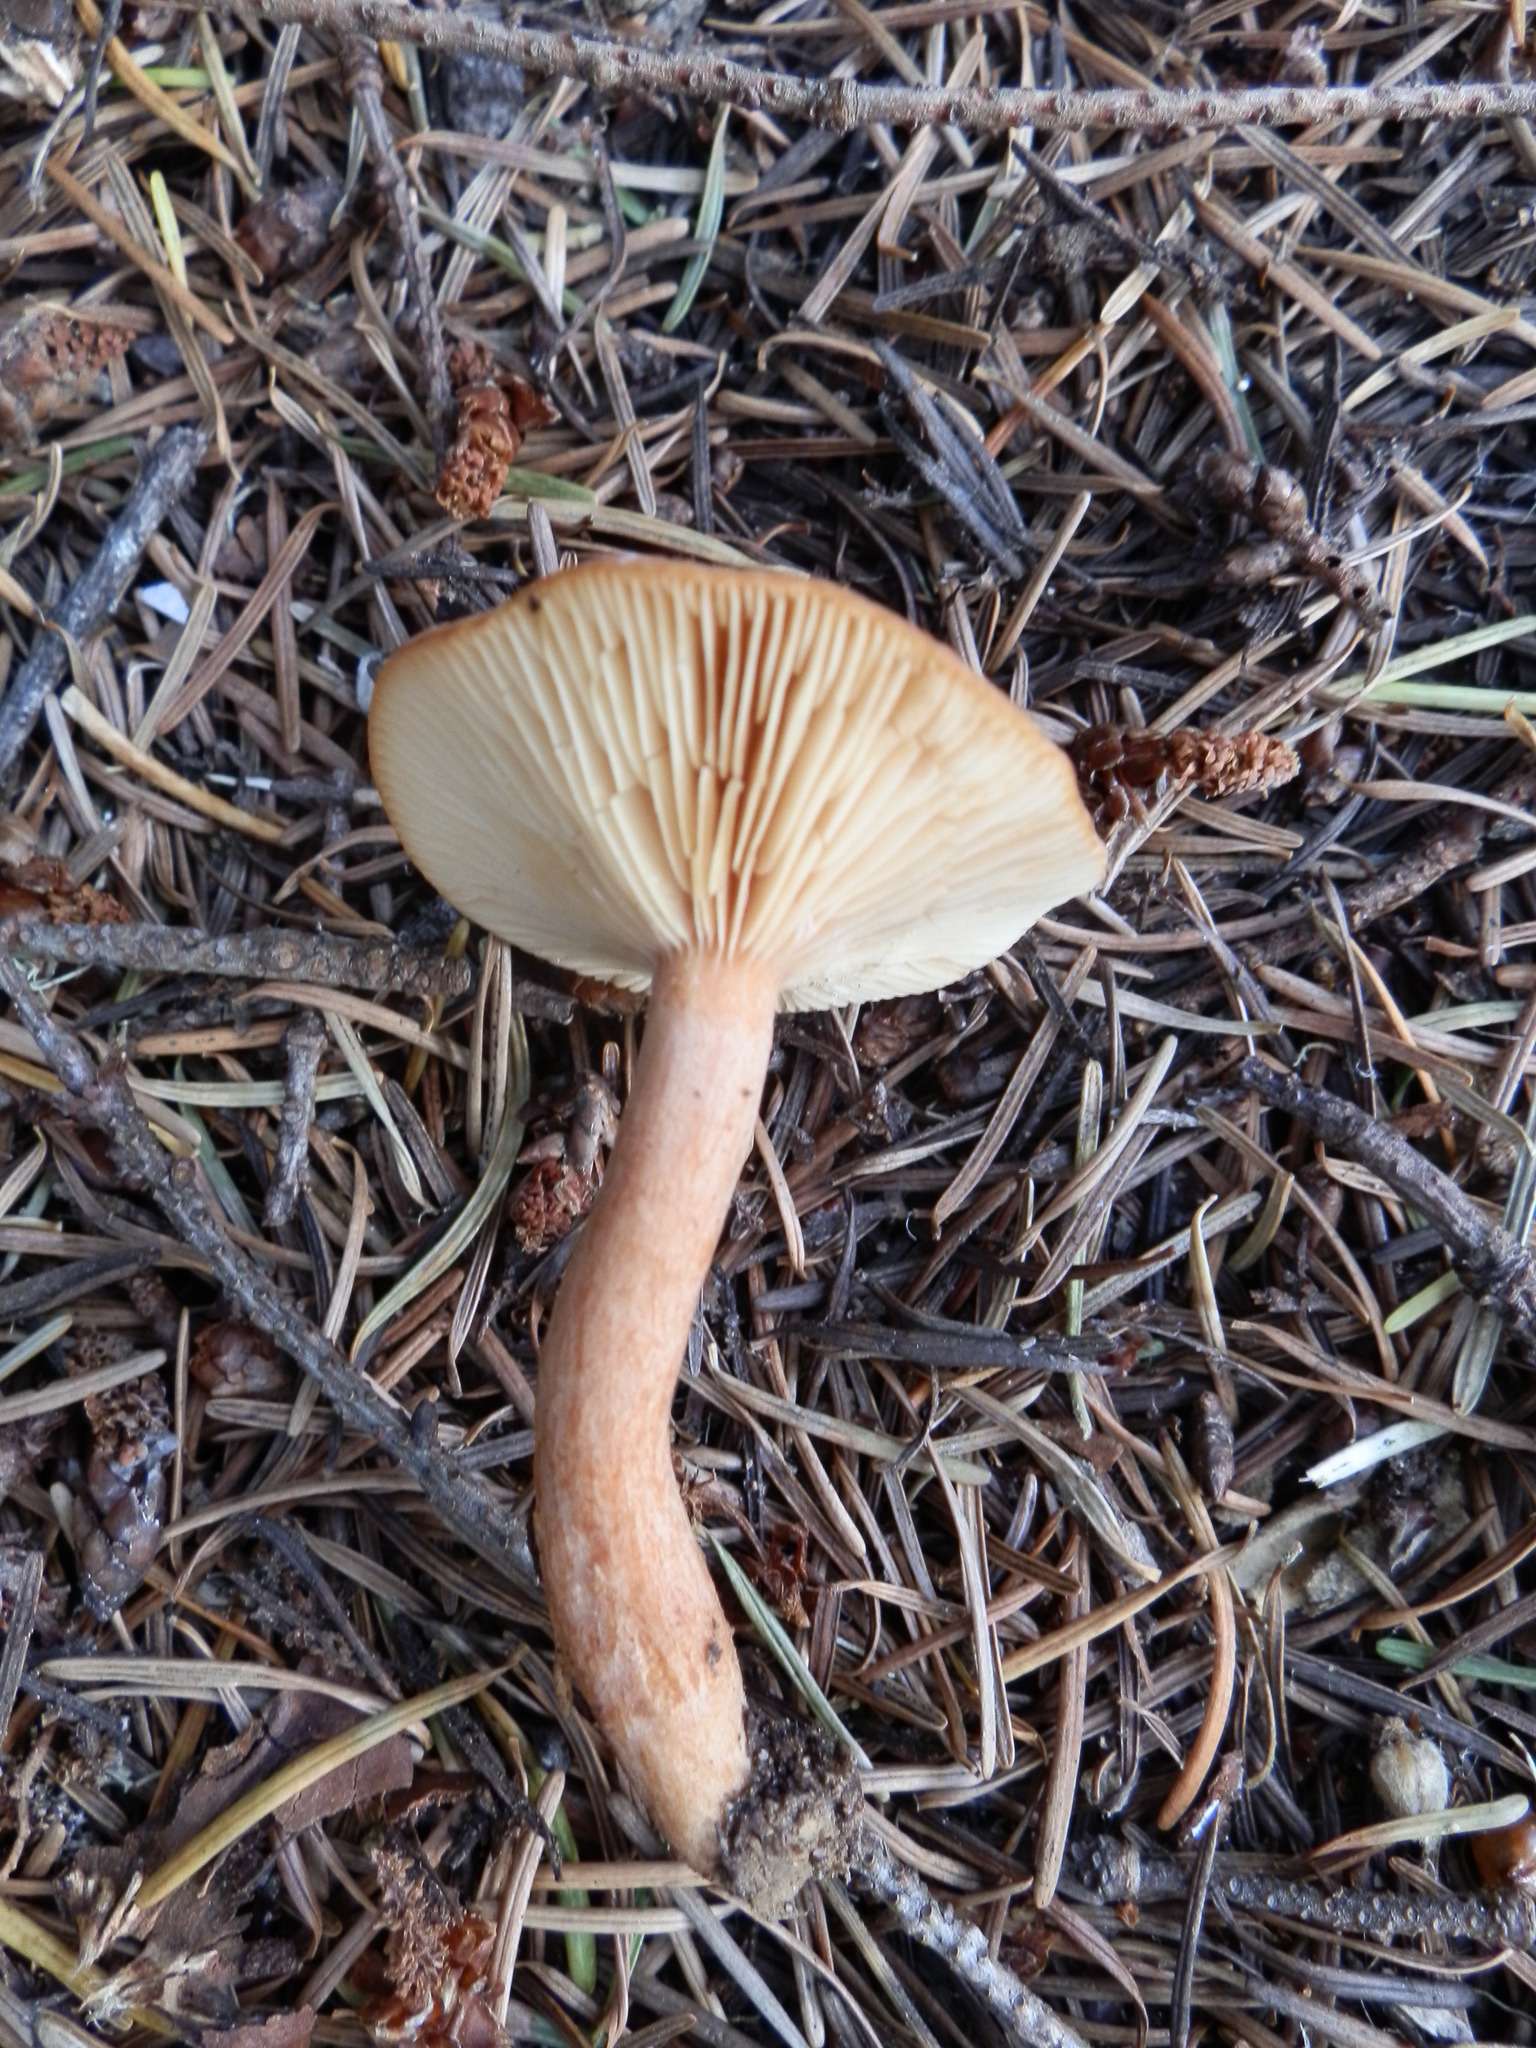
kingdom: Fungi
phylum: Basidiomycota
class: Agaricomycetes
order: Russulales
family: Russulaceae
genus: Lactarius
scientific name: Lactarius rubidus
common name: Candy cap
